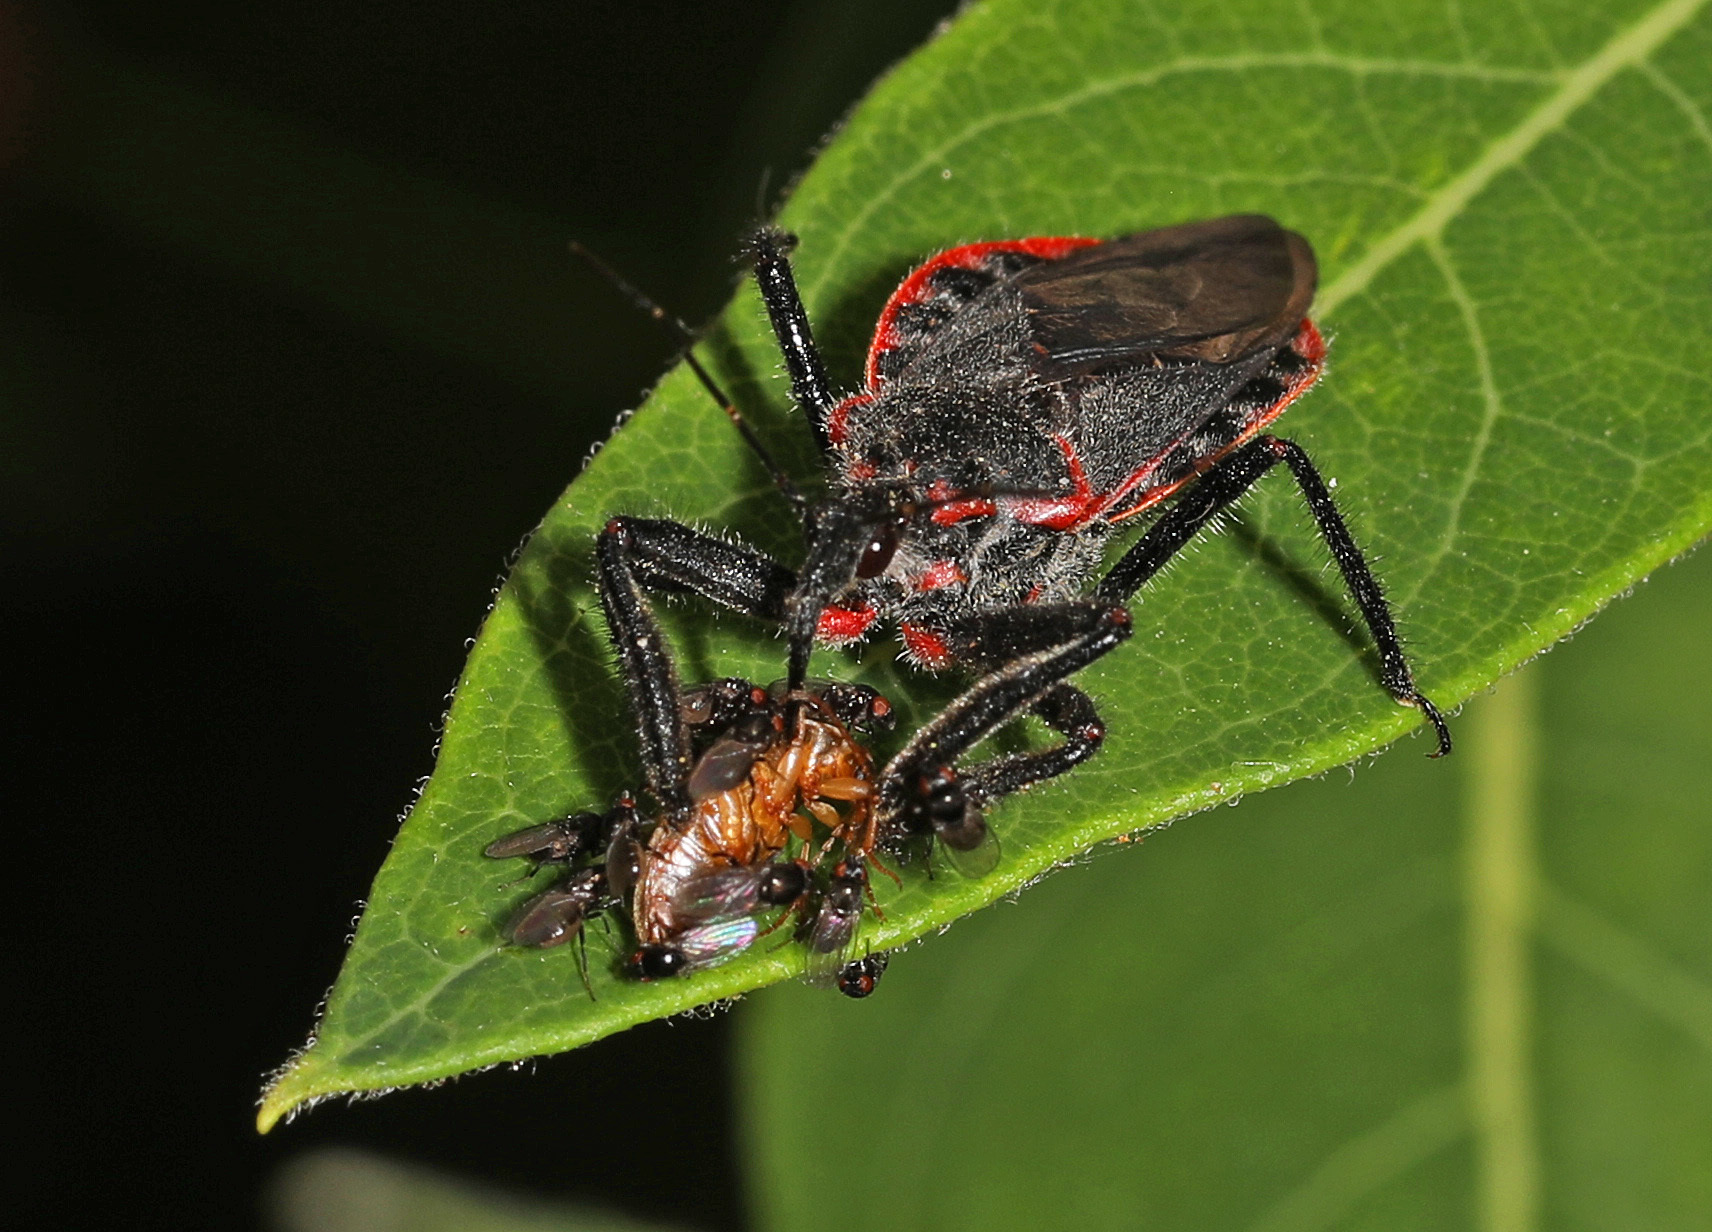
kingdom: Animalia
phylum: Arthropoda
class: Insecta
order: Hemiptera
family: Reduviidae
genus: Apiomerus
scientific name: Apiomerus crassipes
